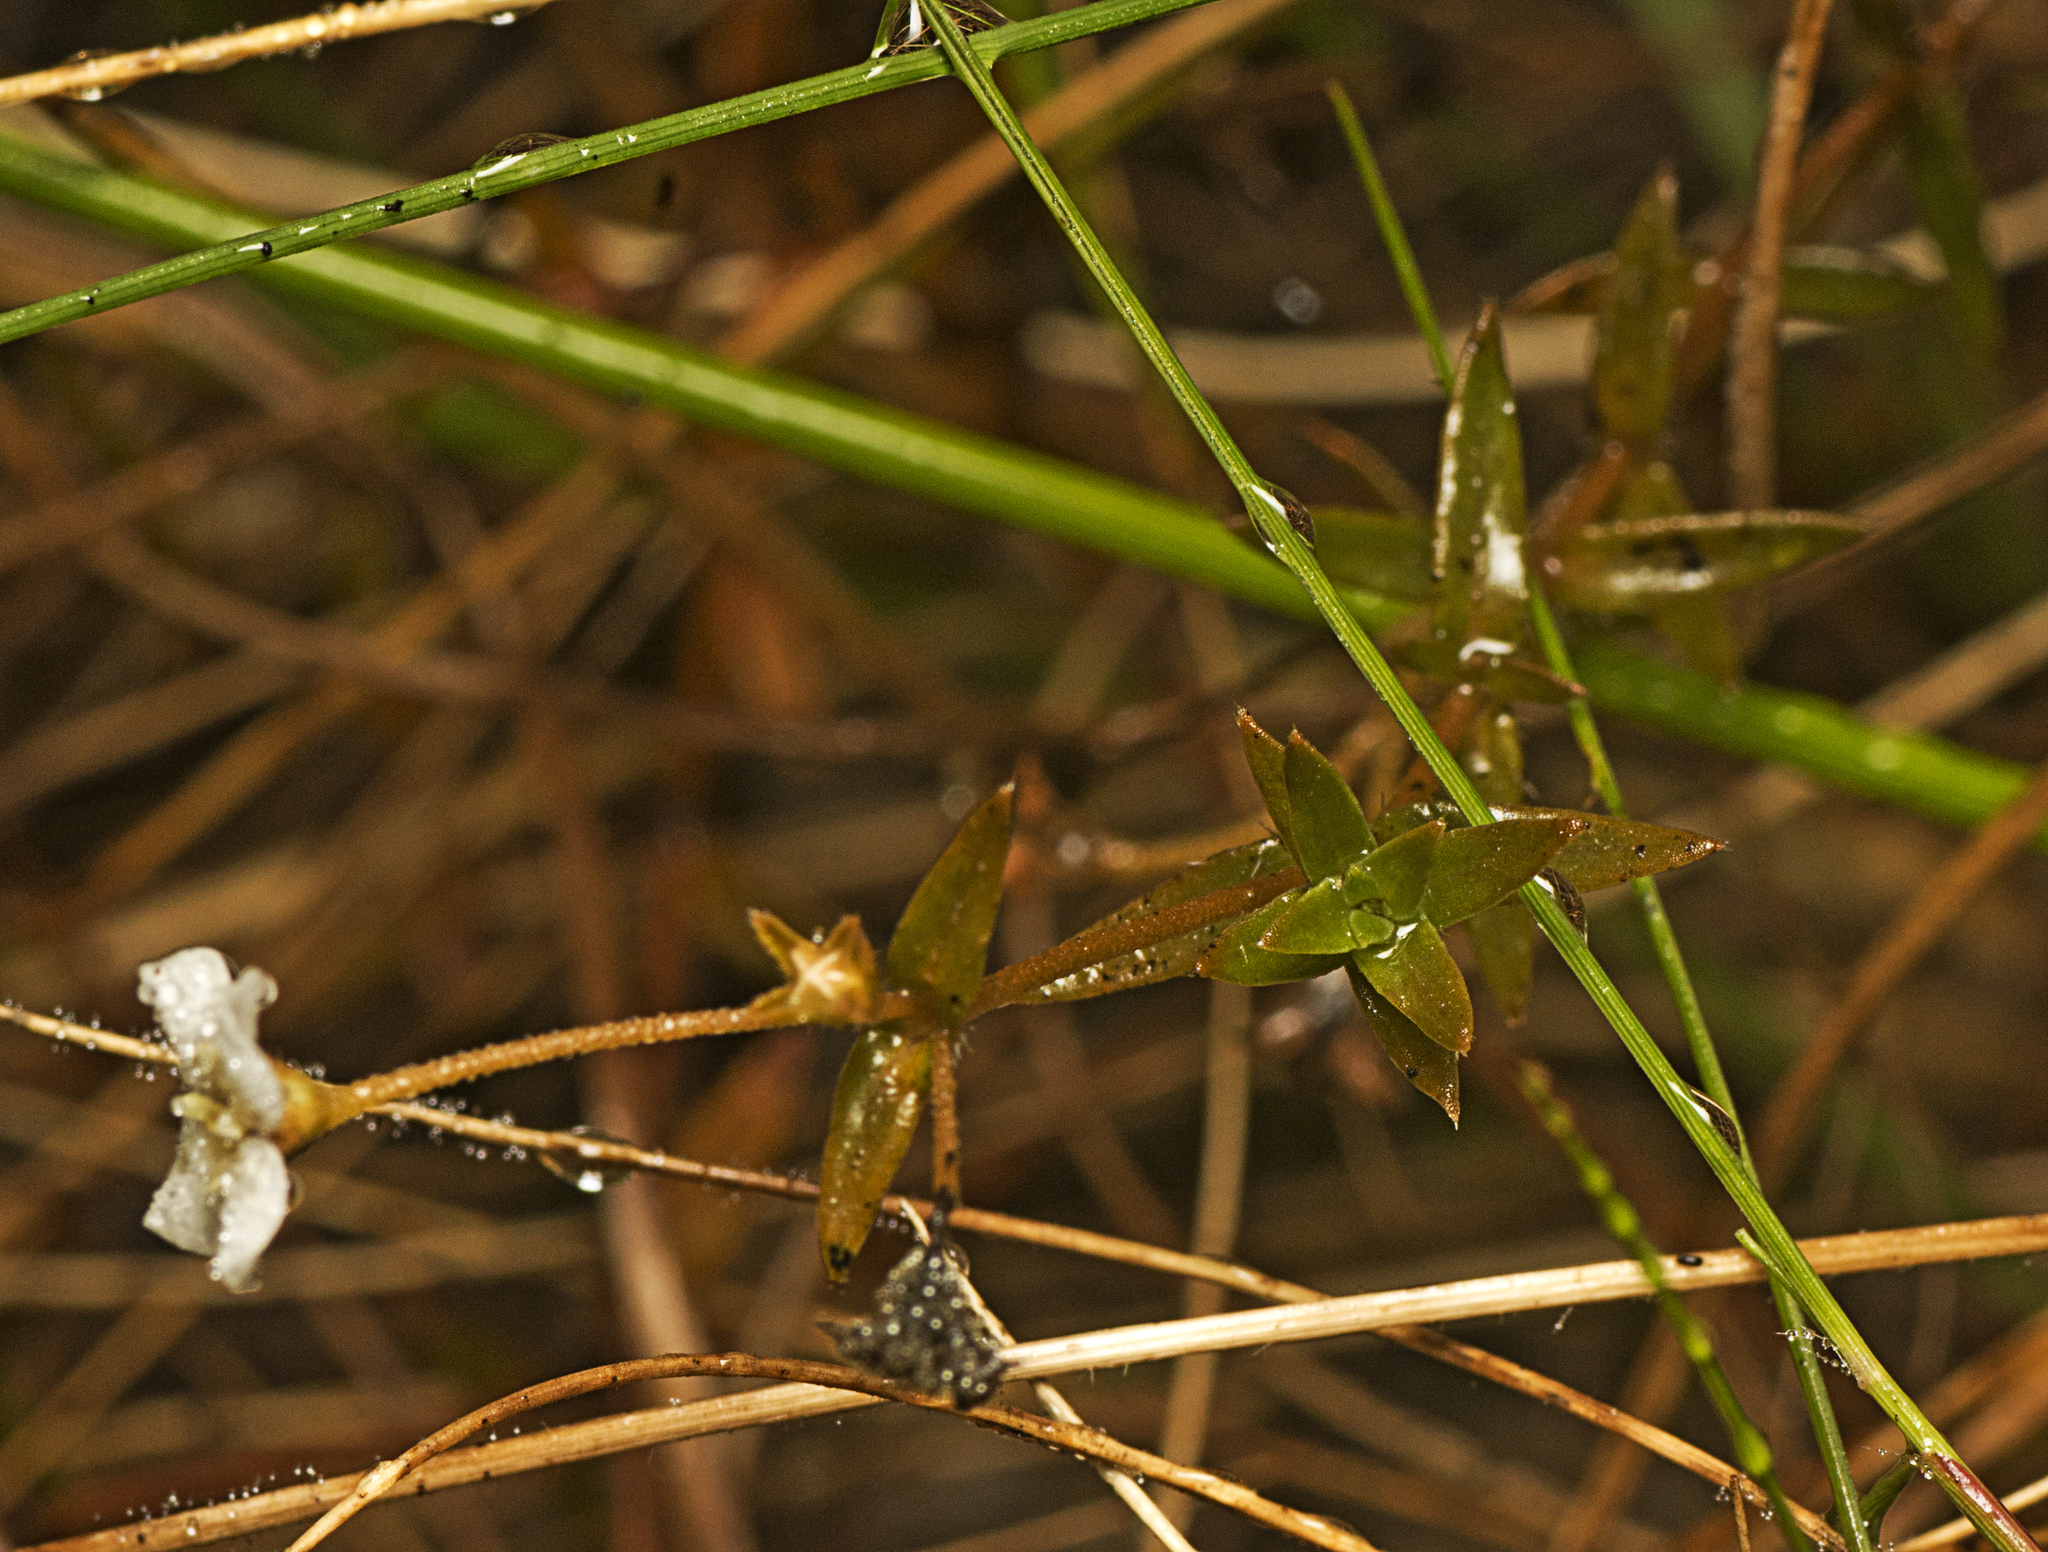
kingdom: Plantae
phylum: Tracheophyta
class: Magnoliopsida
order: Gentianales
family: Loganiaceae
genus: Mitrasacme
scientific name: Mitrasacme paludosa
